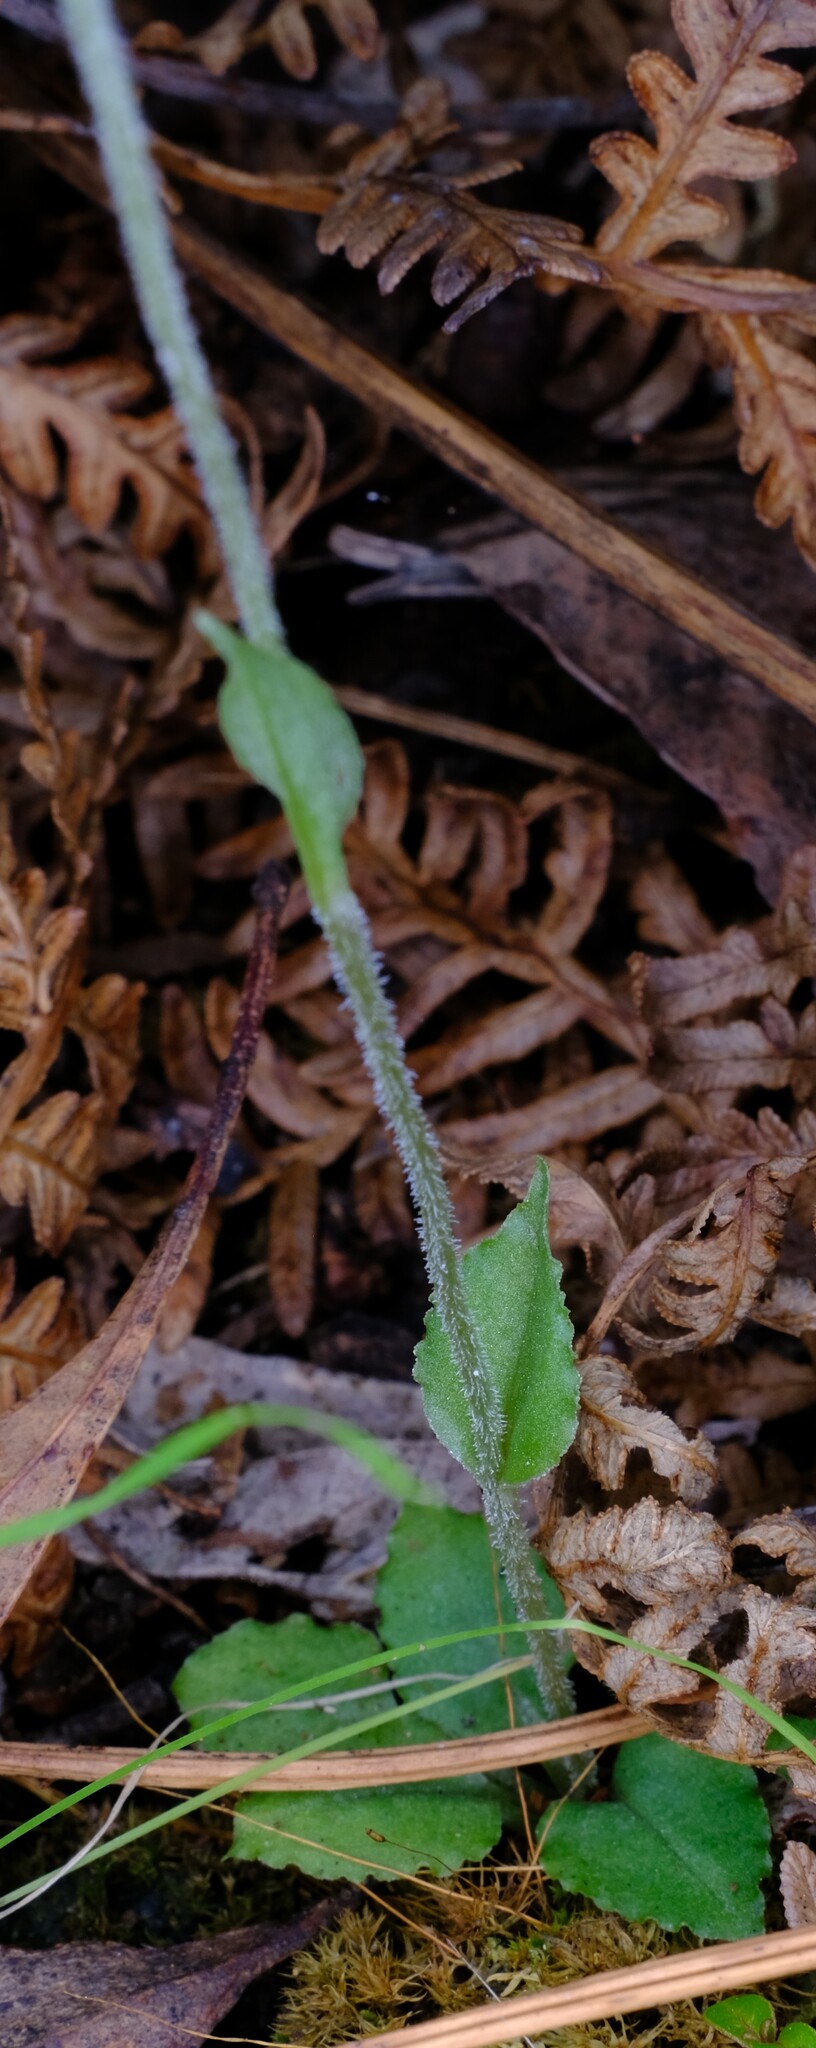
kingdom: Plantae
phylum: Tracheophyta
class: Liliopsida
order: Asparagales
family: Orchidaceae
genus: Pterostylis
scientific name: Pterostylis nana
